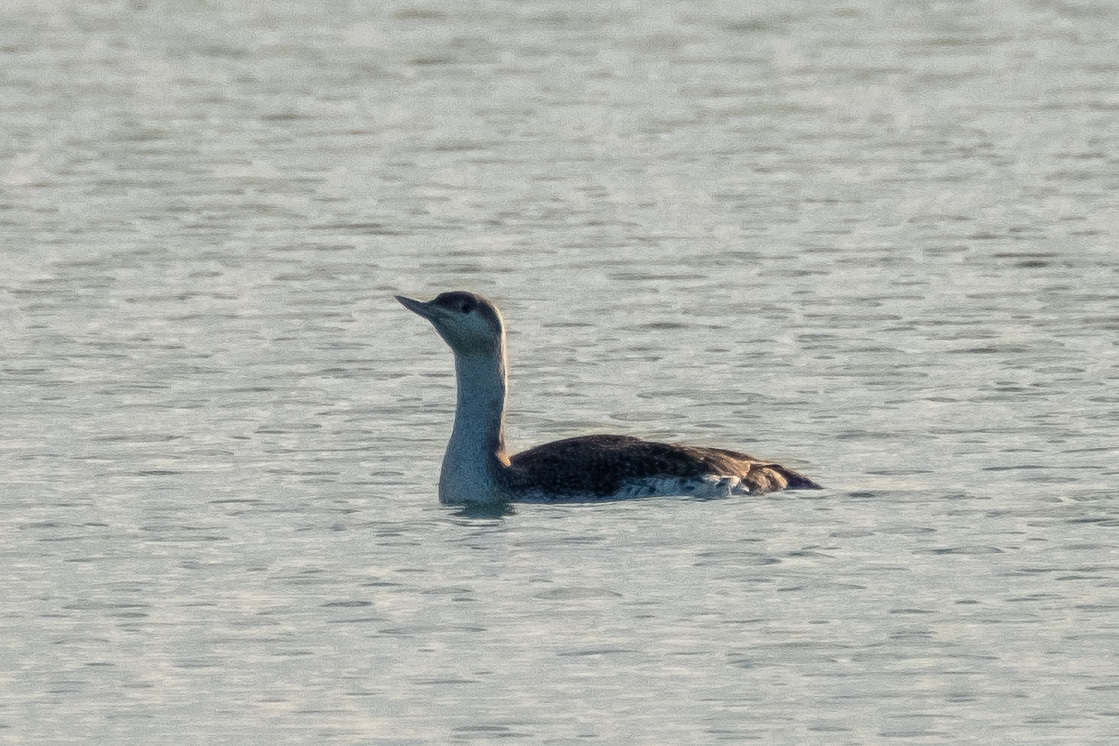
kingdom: Animalia
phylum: Chordata
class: Aves
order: Gaviiformes
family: Gaviidae
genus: Gavia
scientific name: Gavia stellata
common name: Red-throated loon
